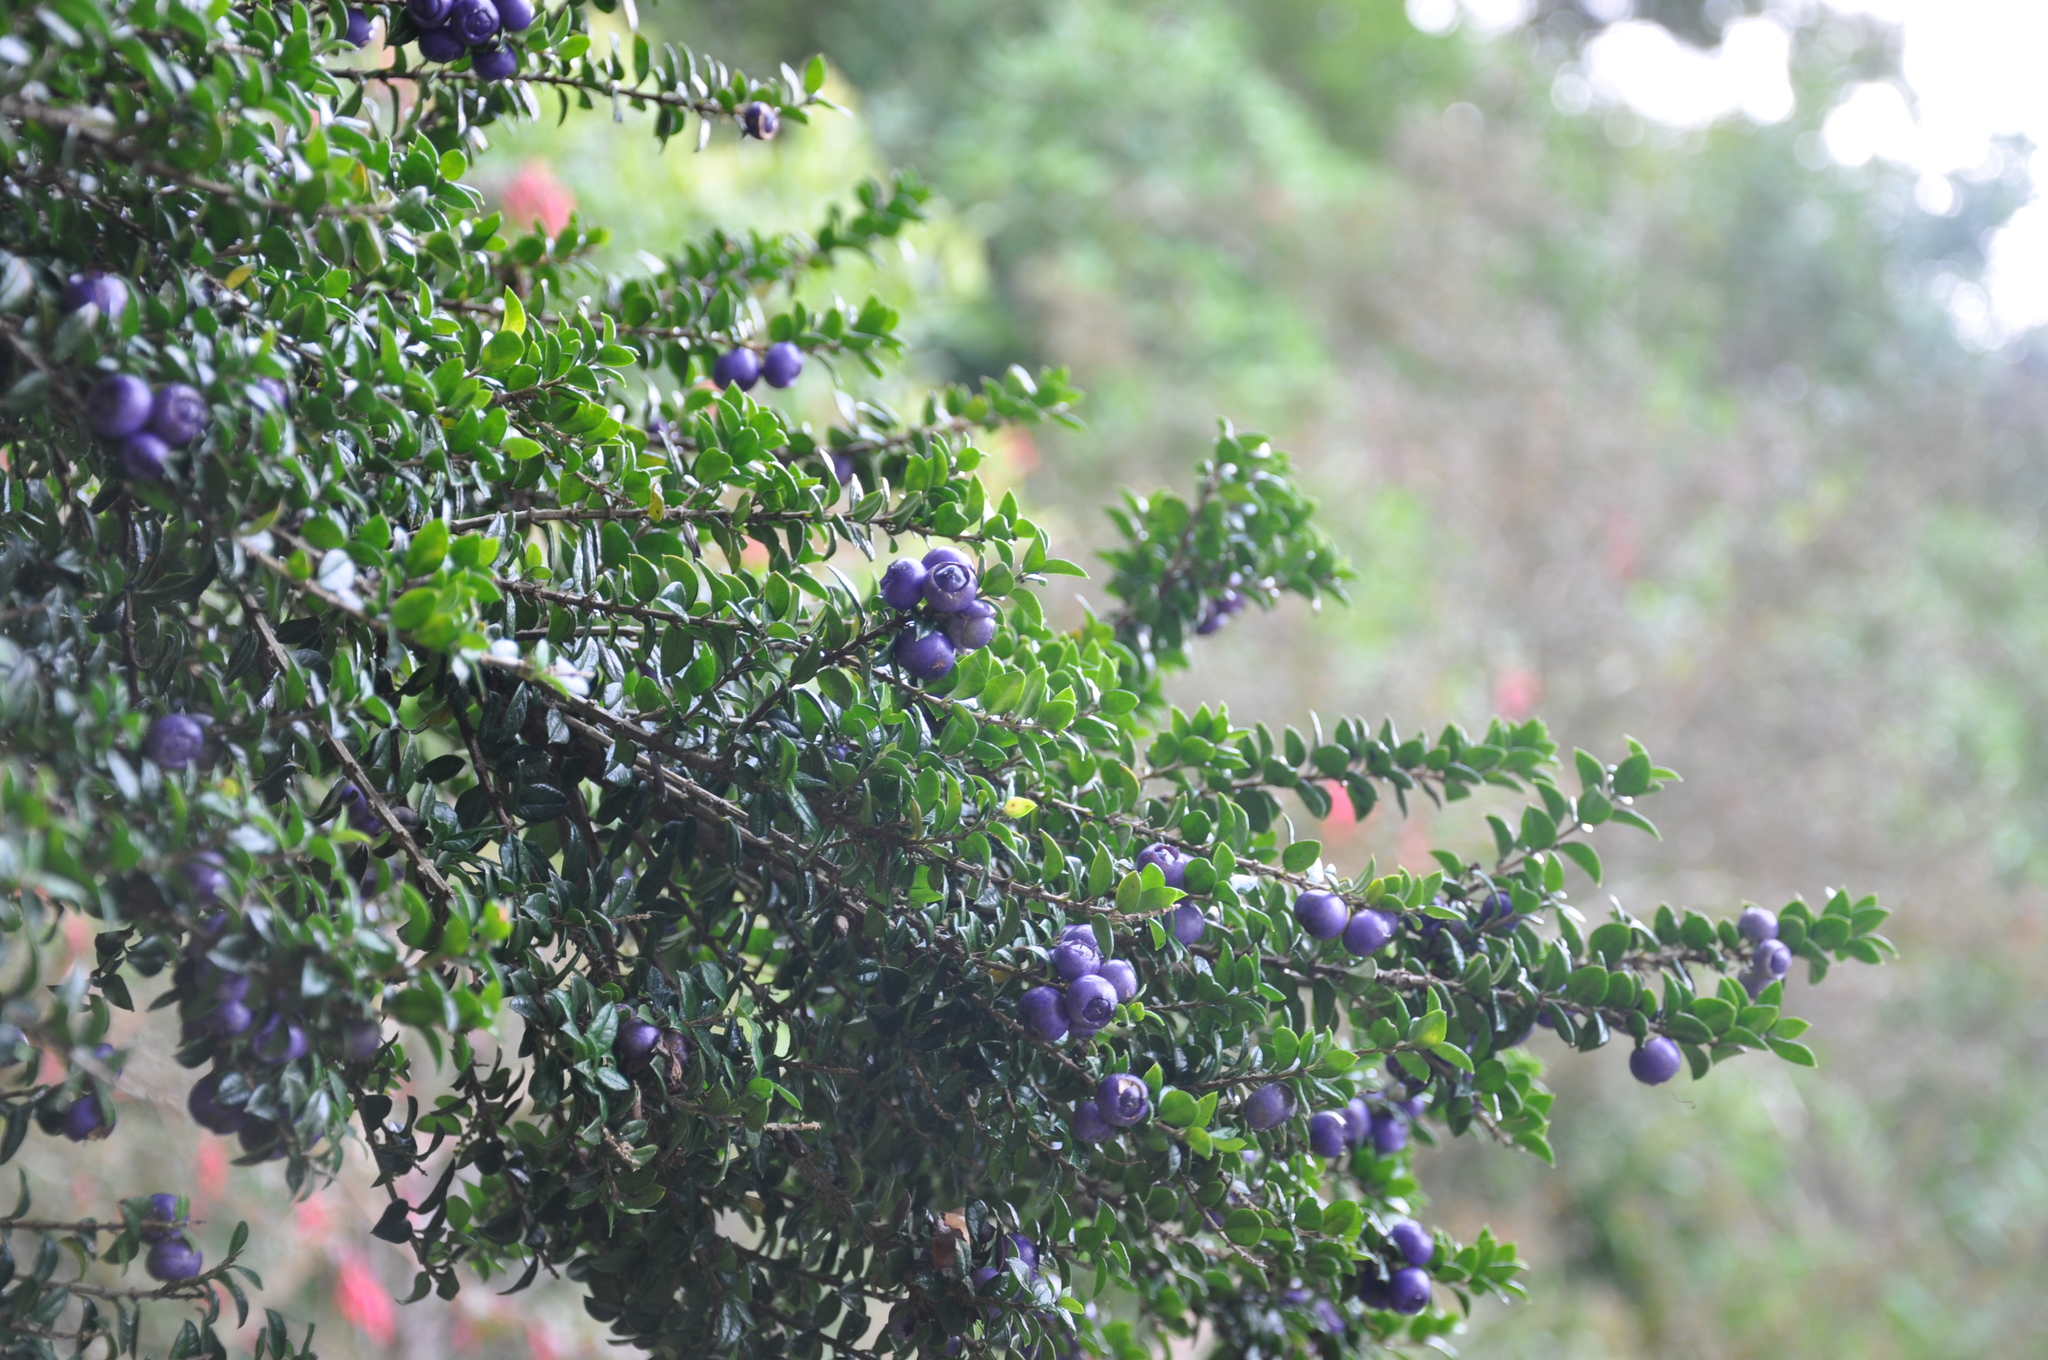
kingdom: Plantae
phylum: Tracheophyta
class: Magnoliopsida
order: Lamiales
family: Verbenaceae
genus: Rhaphithamnus
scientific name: Rhaphithamnus spinosus
